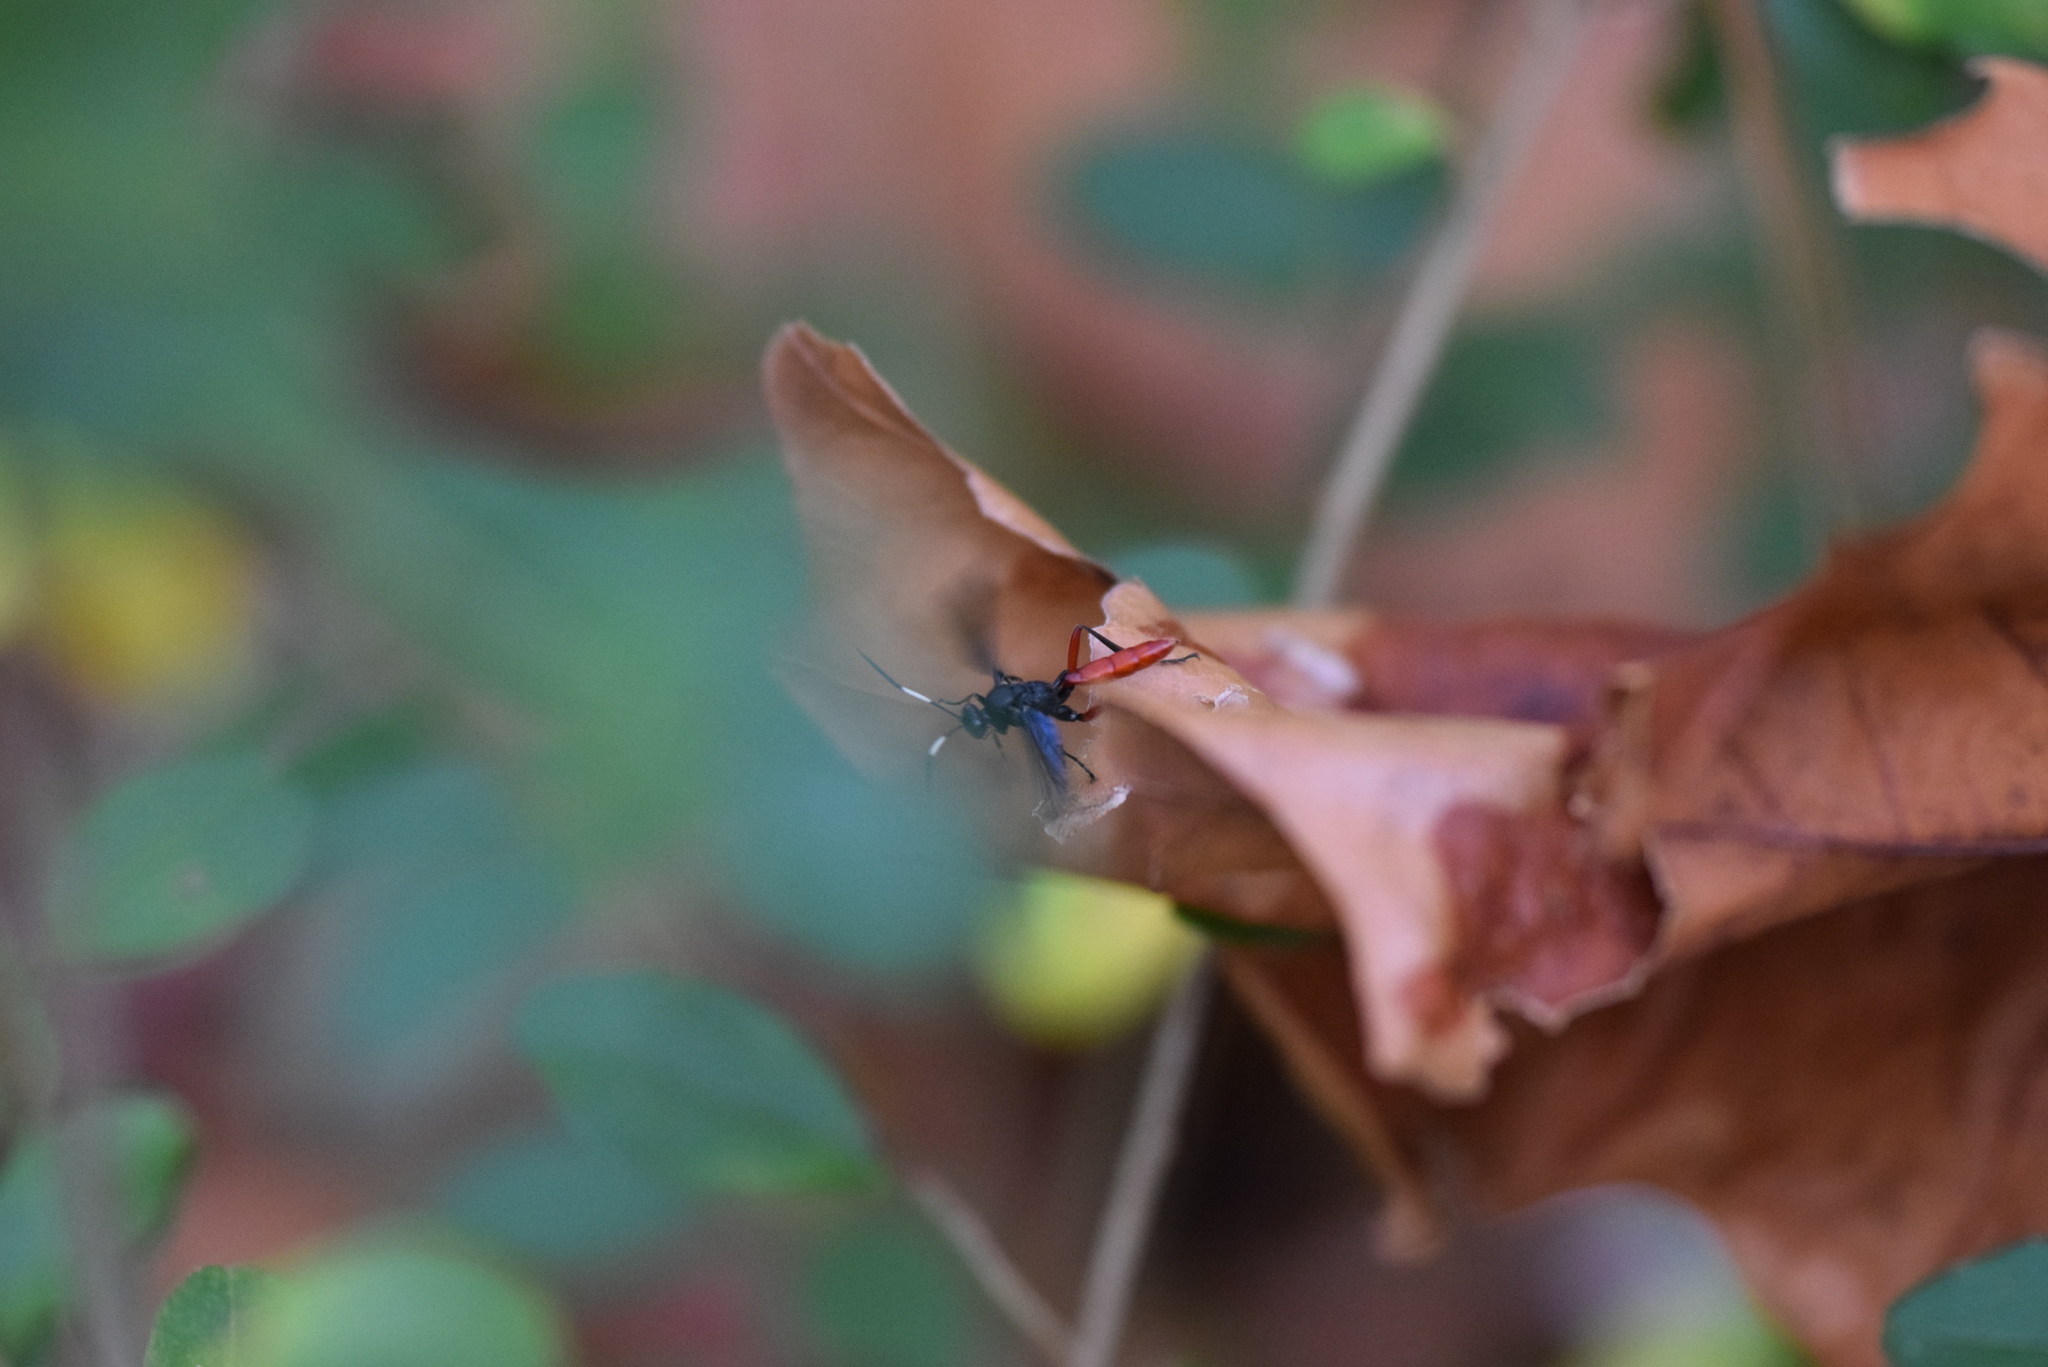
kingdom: Animalia
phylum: Arthropoda
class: Insecta
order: Hymenoptera
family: Ichneumonidae
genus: Limonethe
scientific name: Limonethe maurator
